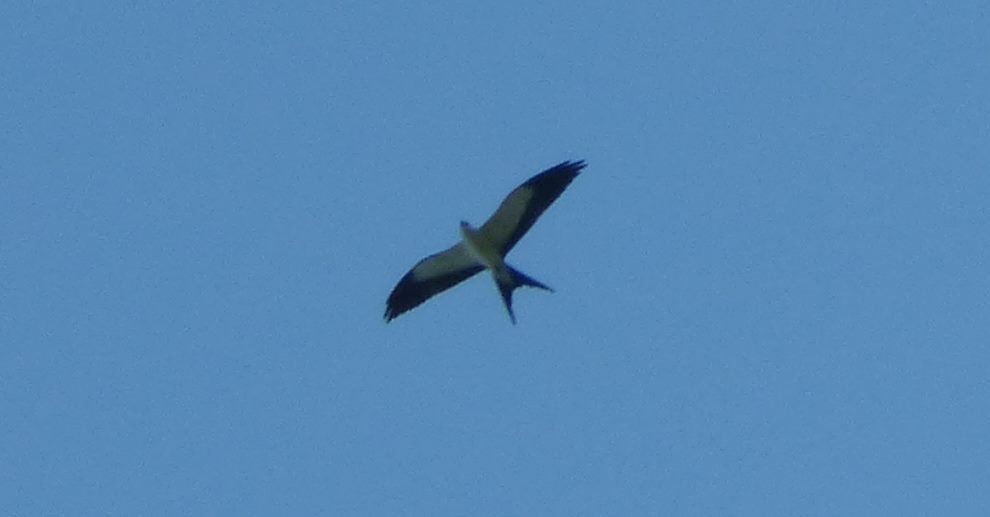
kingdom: Animalia
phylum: Chordata
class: Aves
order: Accipitriformes
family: Accipitridae
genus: Elanoides
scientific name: Elanoides forficatus
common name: Swallow-tailed kite
